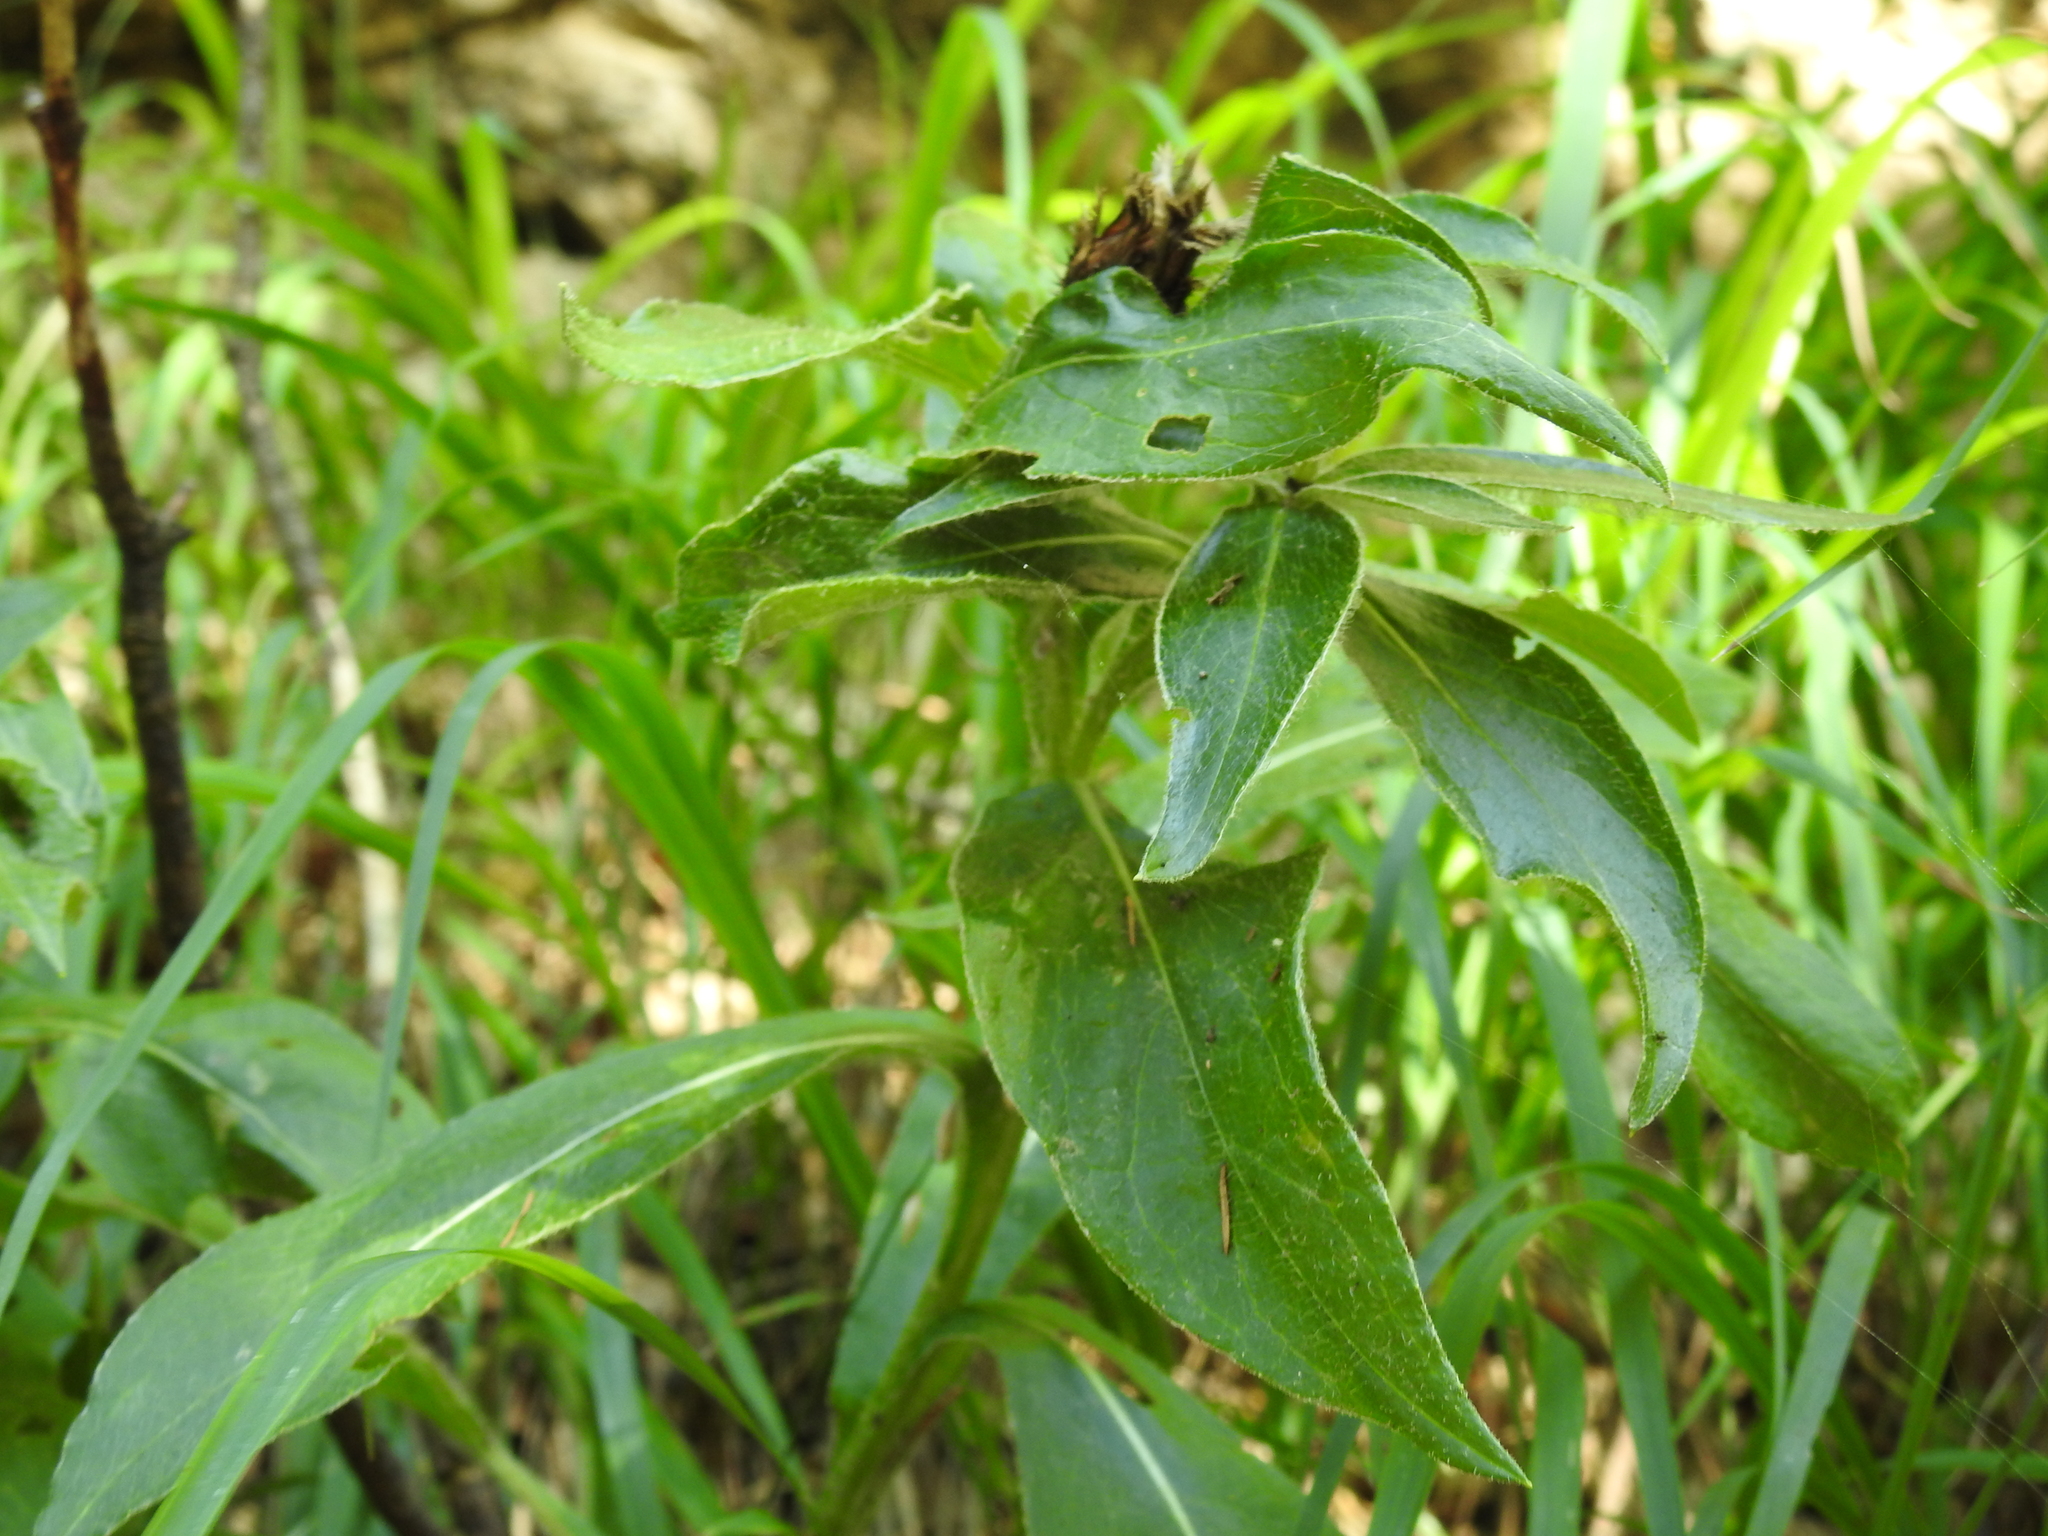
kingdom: Plantae
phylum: Tracheophyta
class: Magnoliopsida
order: Asterales
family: Asteraceae
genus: Centaurea
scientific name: Centaurea montana
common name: Perennial cornflower
